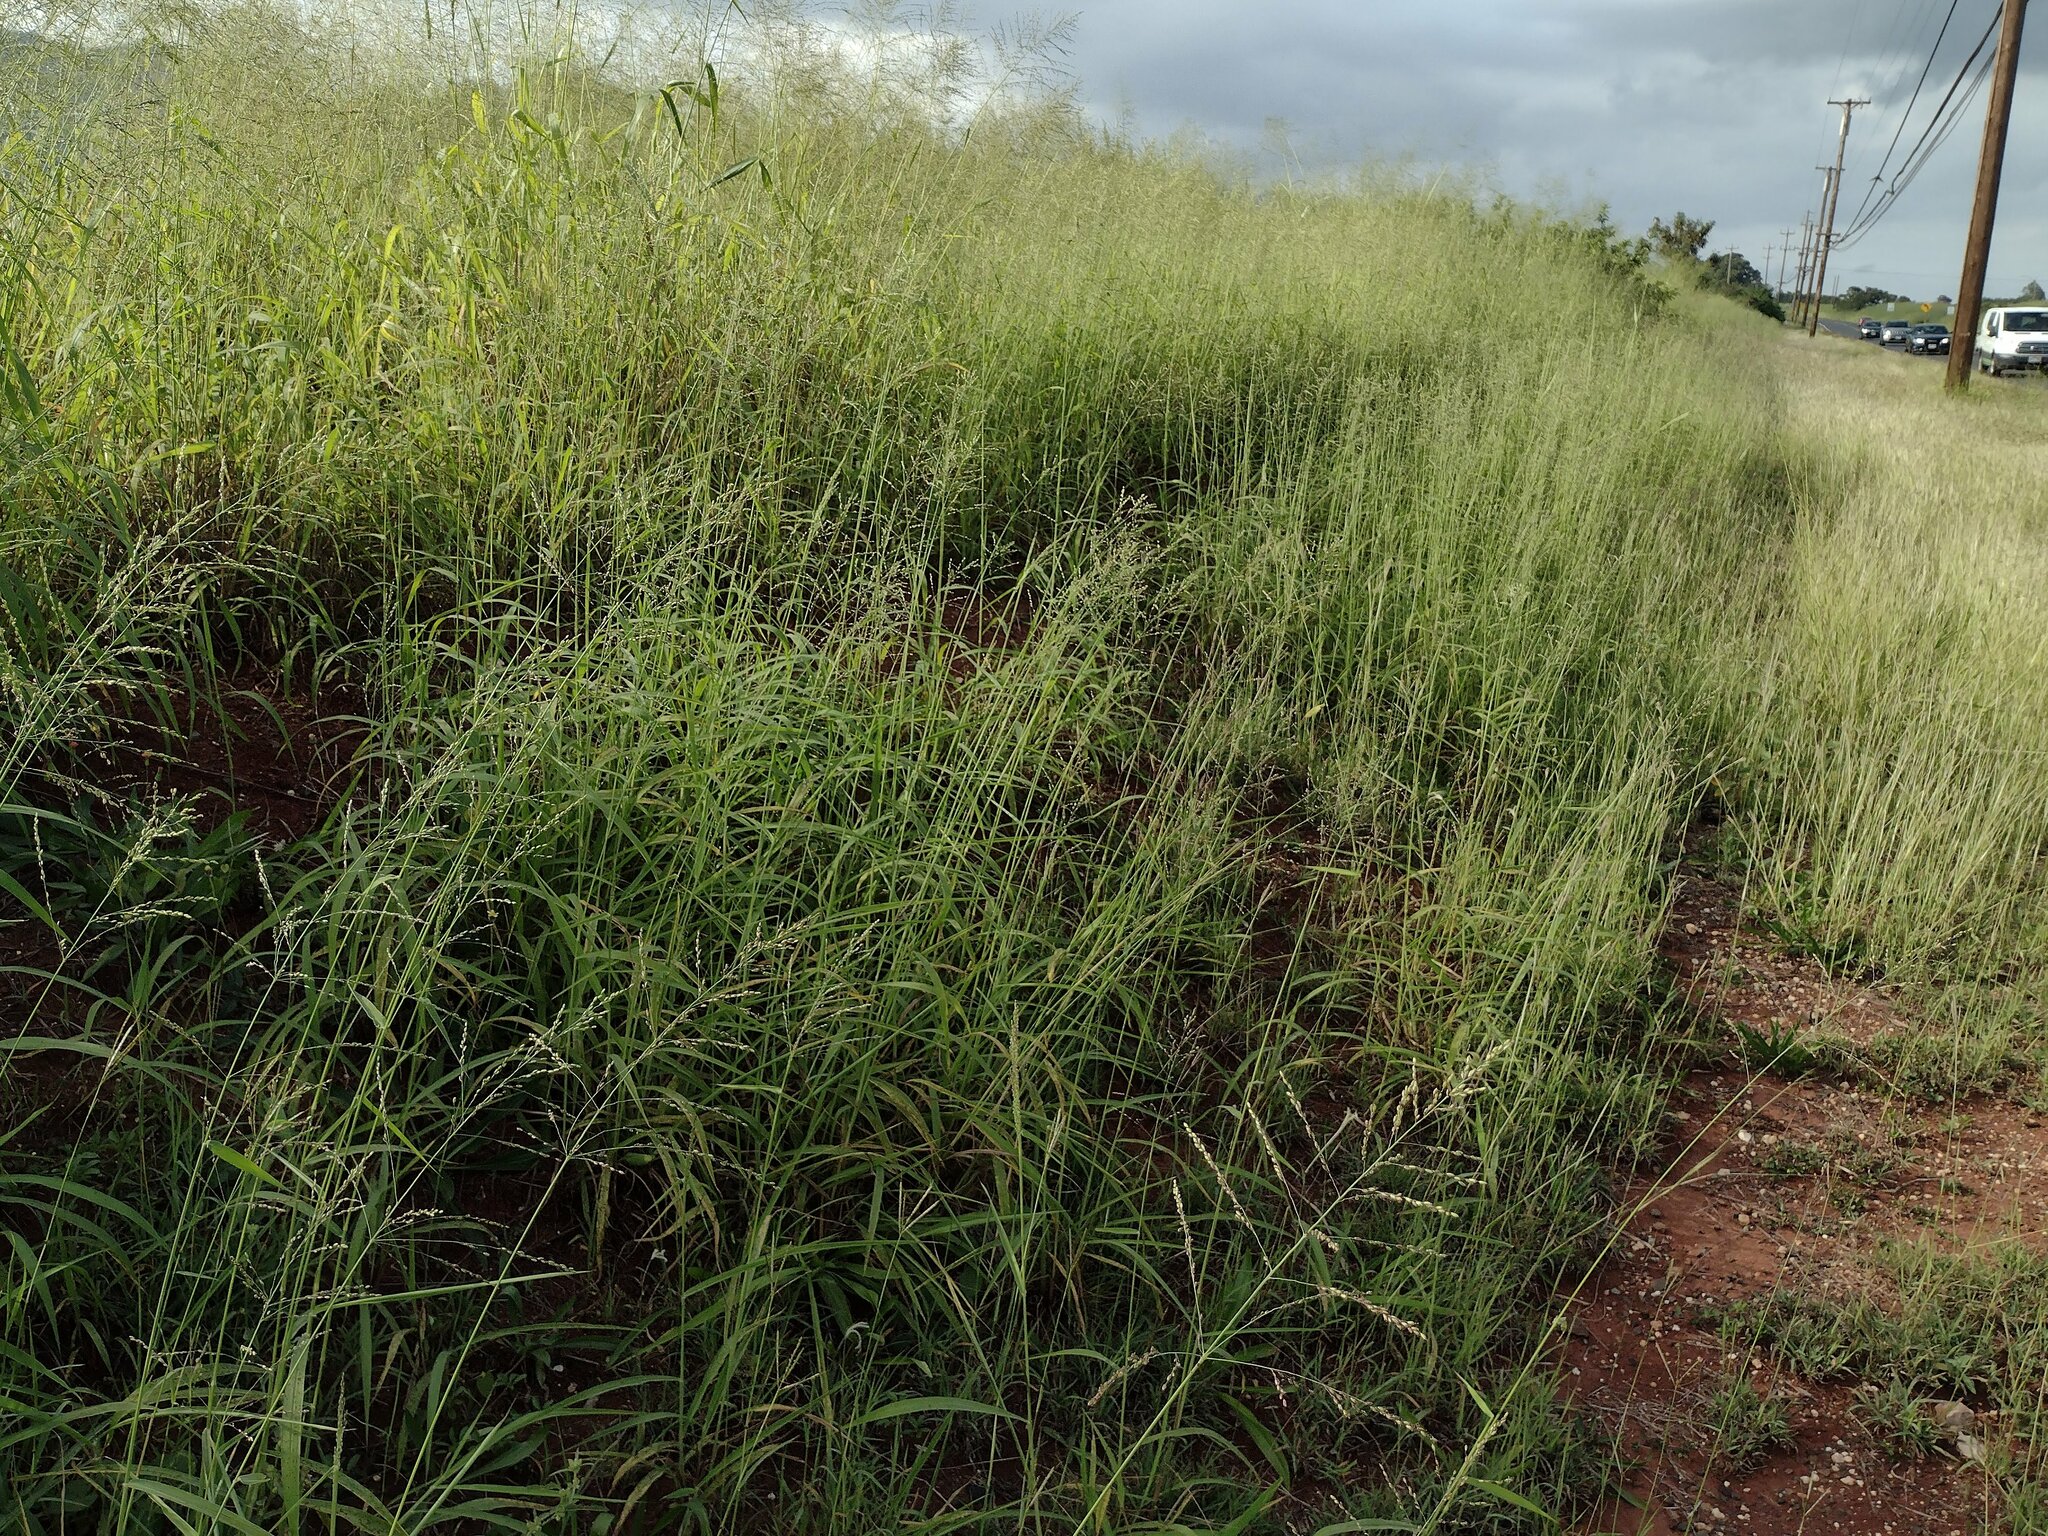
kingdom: Plantae
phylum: Tracheophyta
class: Liliopsida
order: Poales
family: Poaceae
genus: Megathyrsus
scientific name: Megathyrsus maximus
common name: Guineagrass
